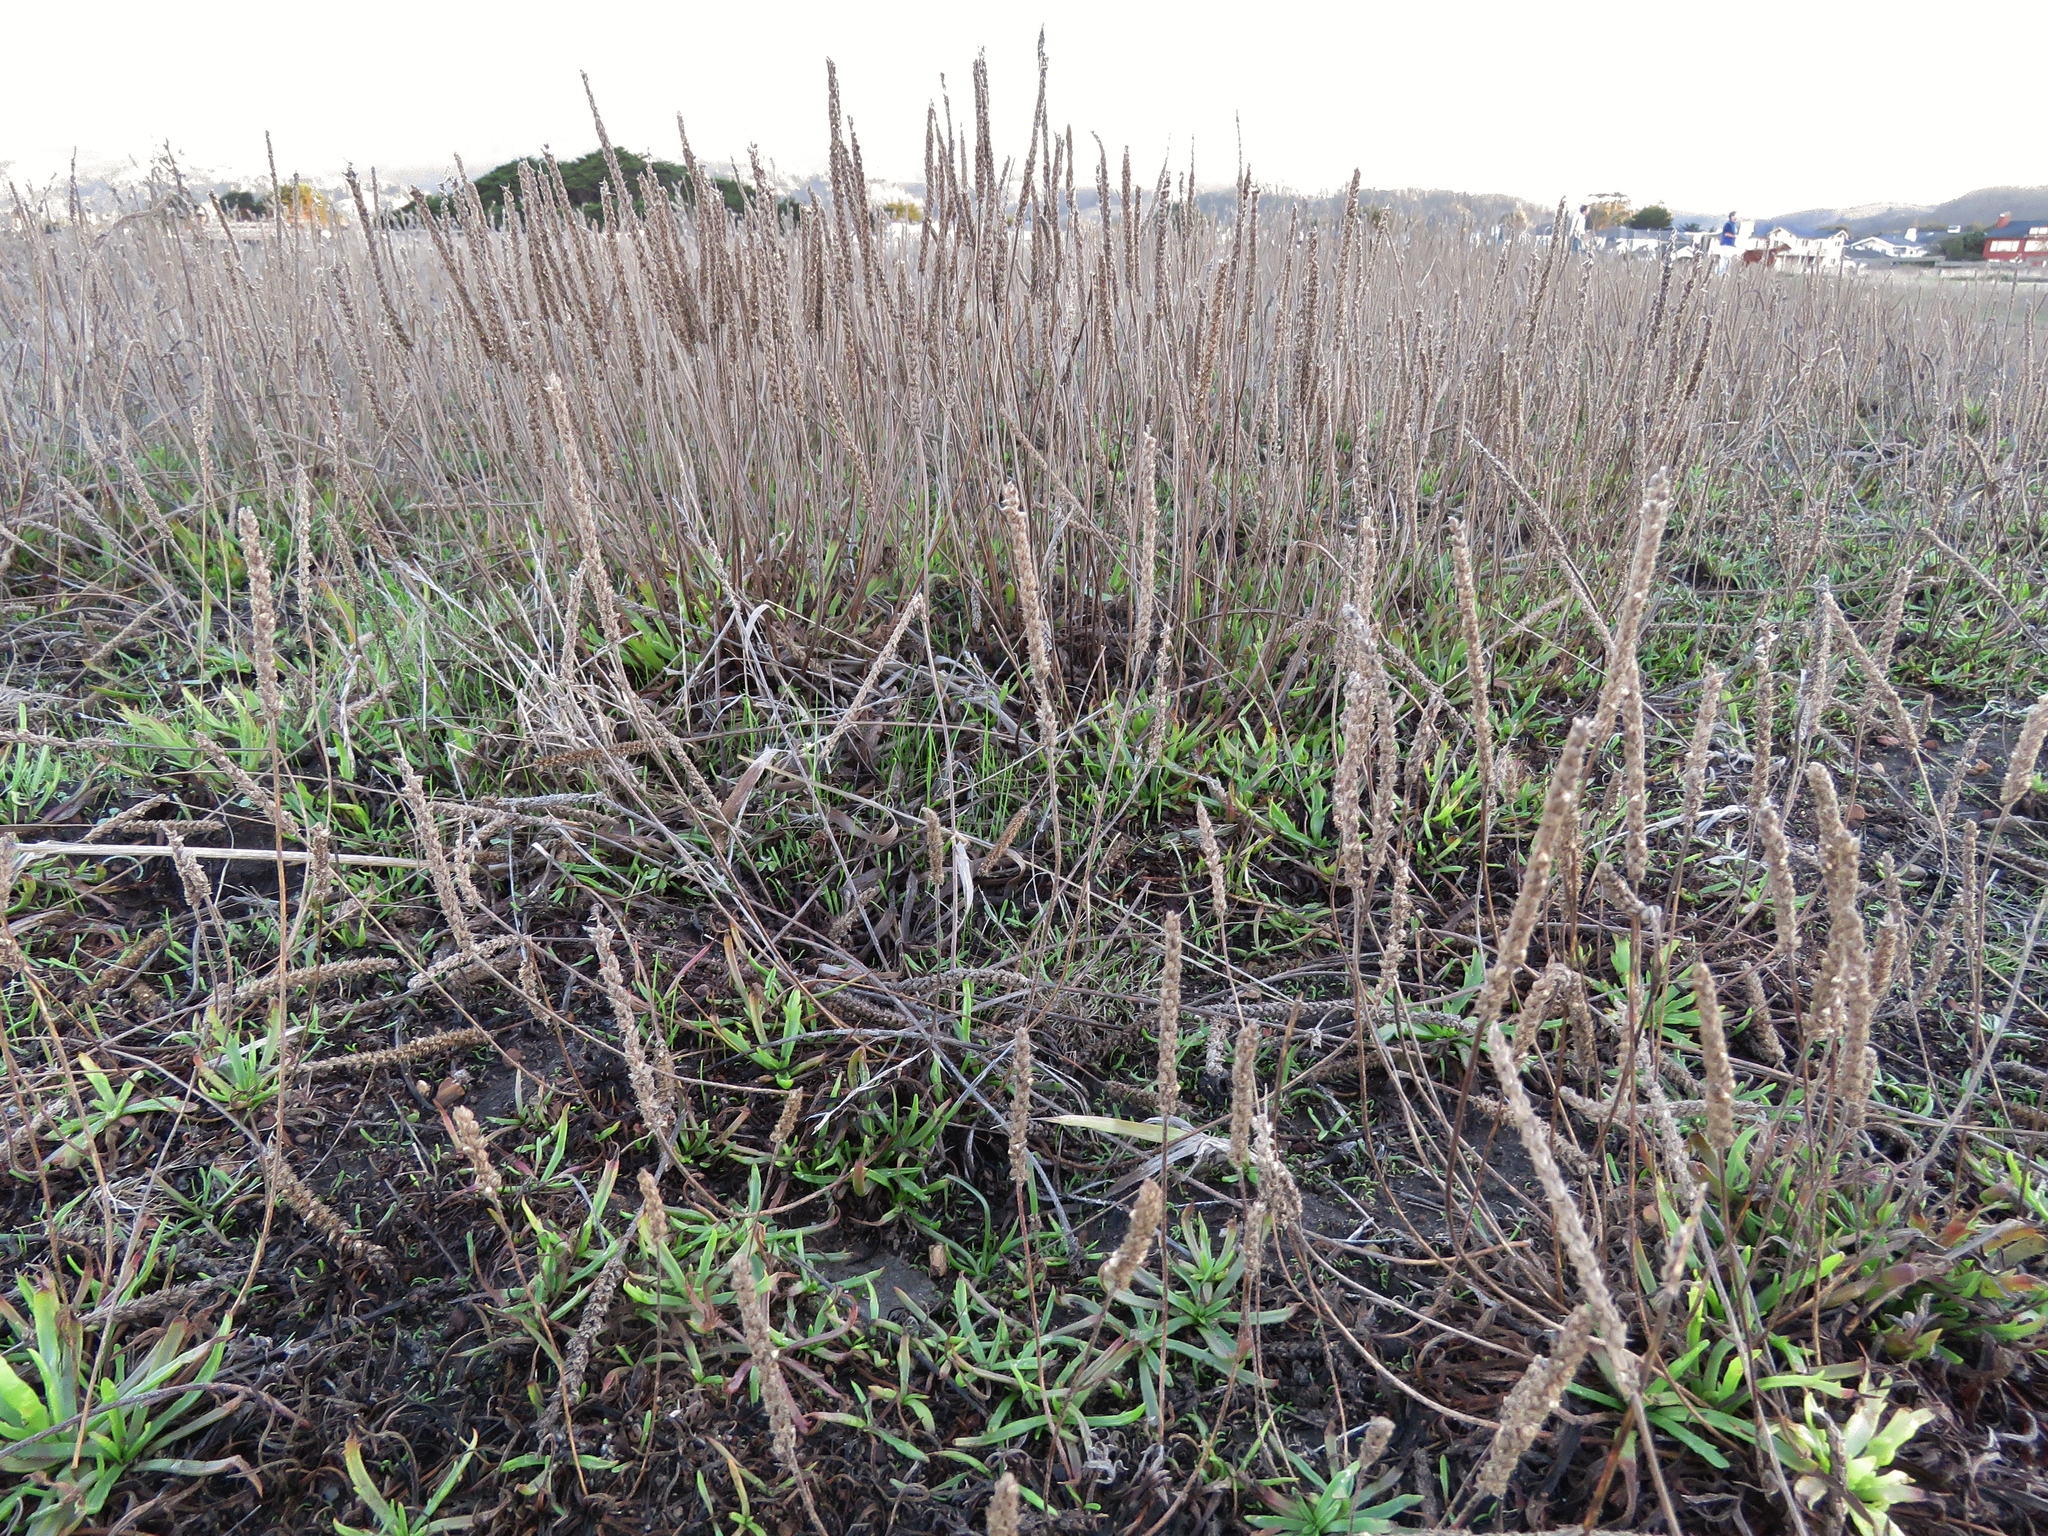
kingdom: Plantae
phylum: Tracheophyta
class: Magnoliopsida
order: Lamiales
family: Plantaginaceae
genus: Plantago
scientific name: Plantago coronopus
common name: Buck's-horn plantain
